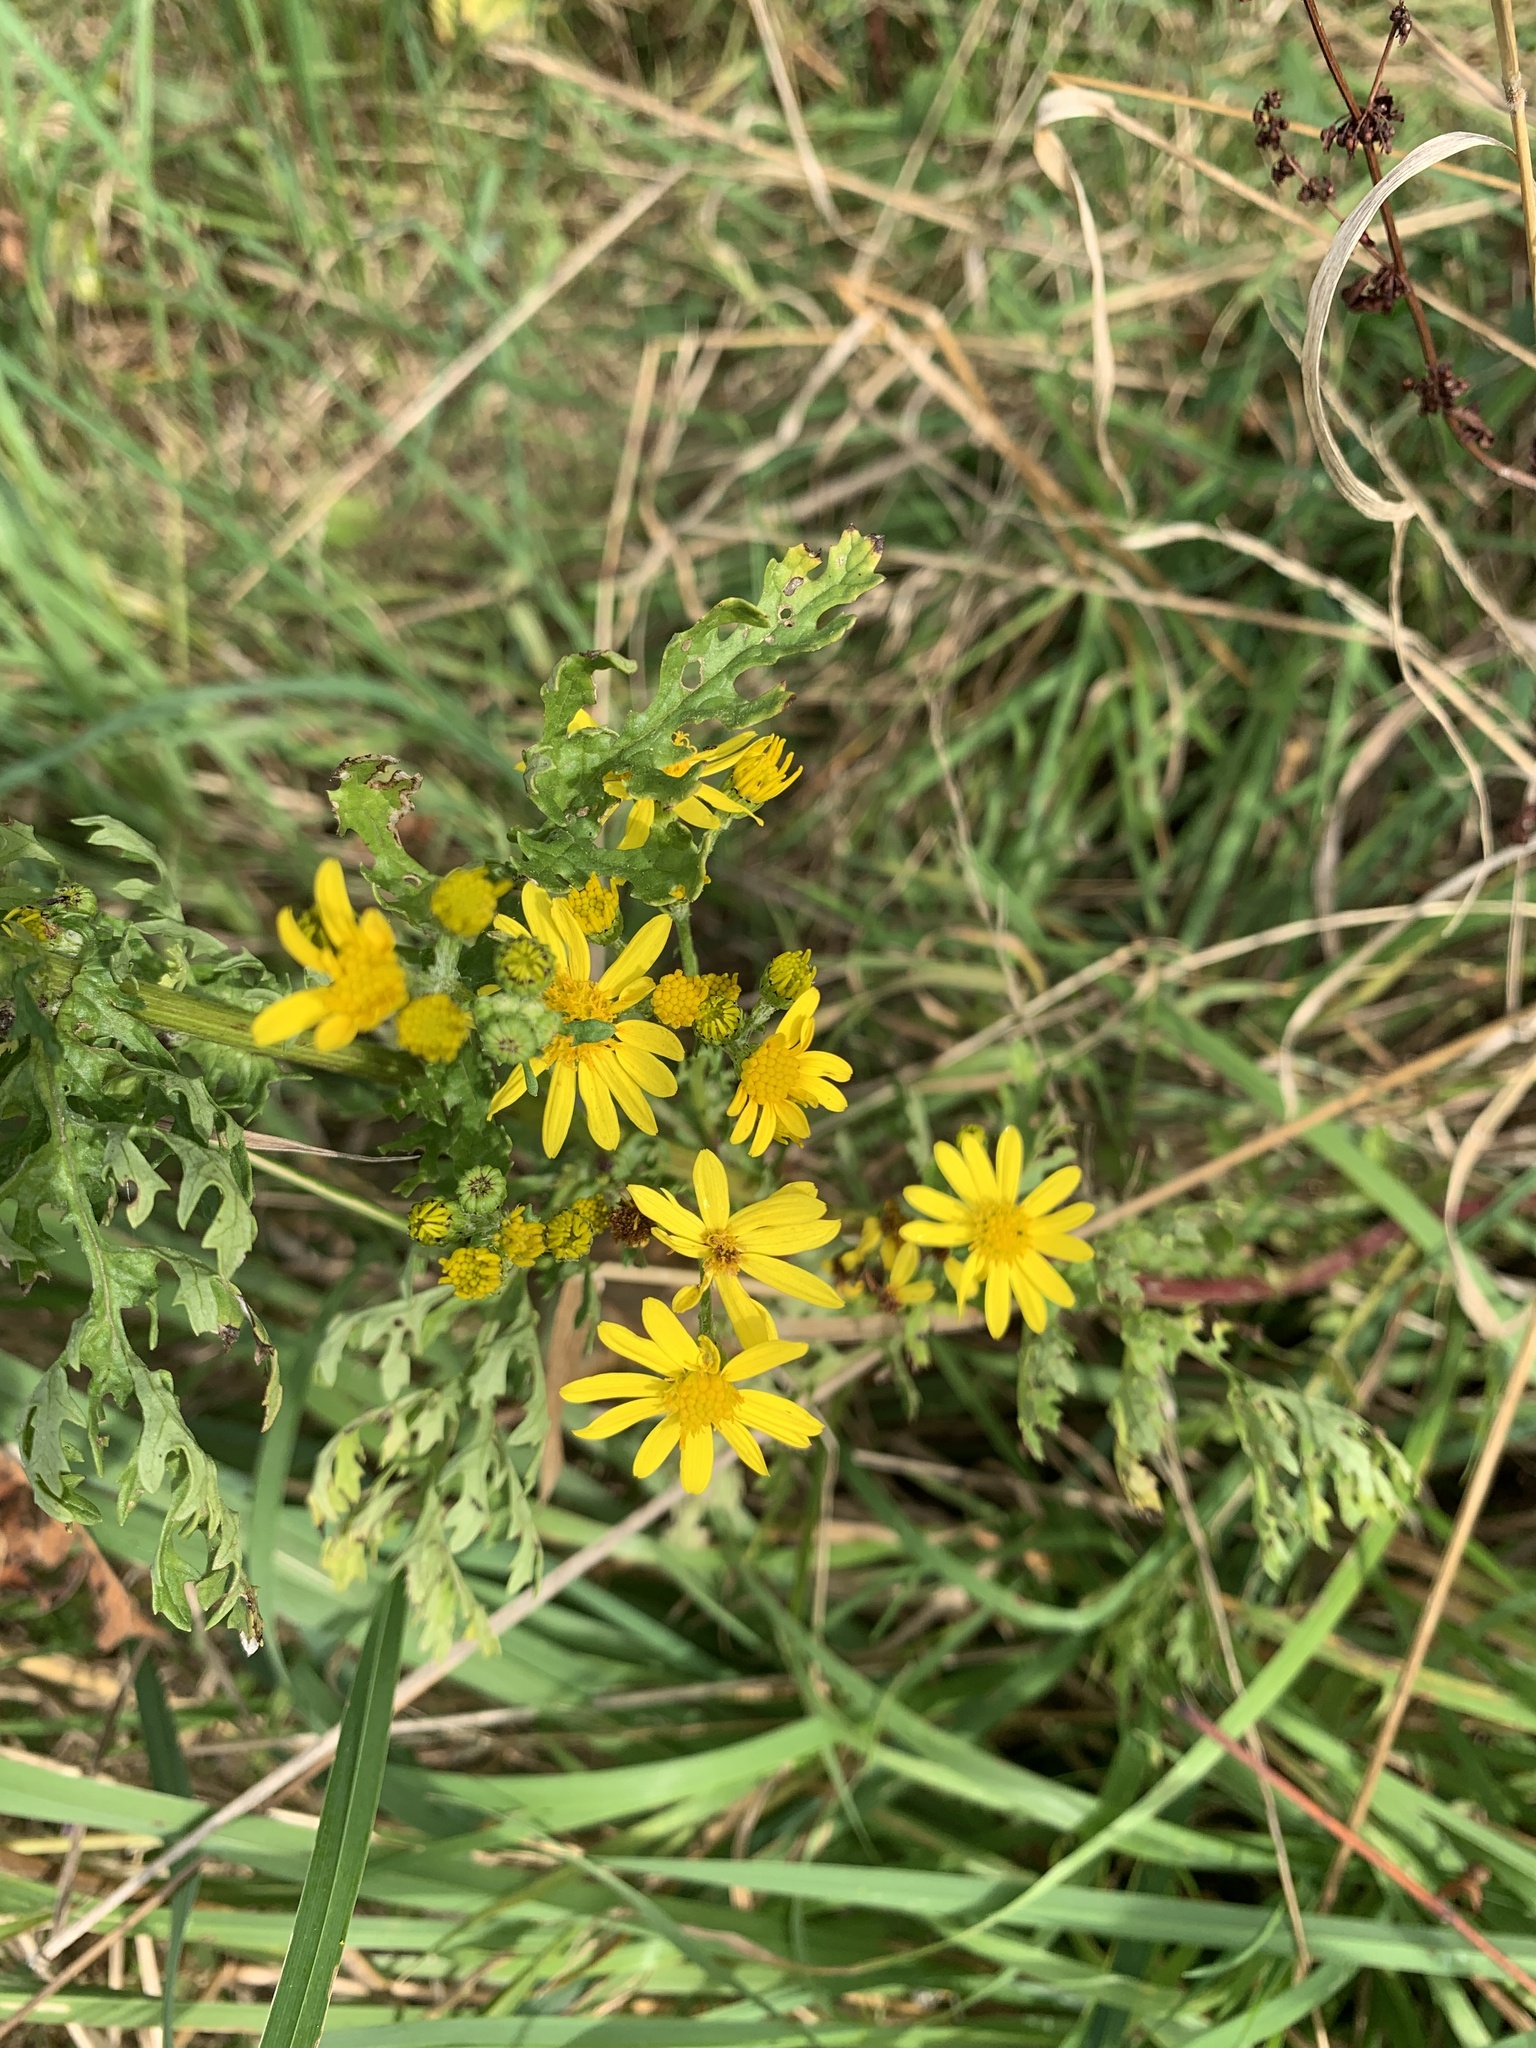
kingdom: Plantae
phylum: Tracheophyta
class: Magnoliopsida
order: Asterales
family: Asteraceae
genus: Jacobaea
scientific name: Jacobaea vulgaris
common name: Stinking willie
